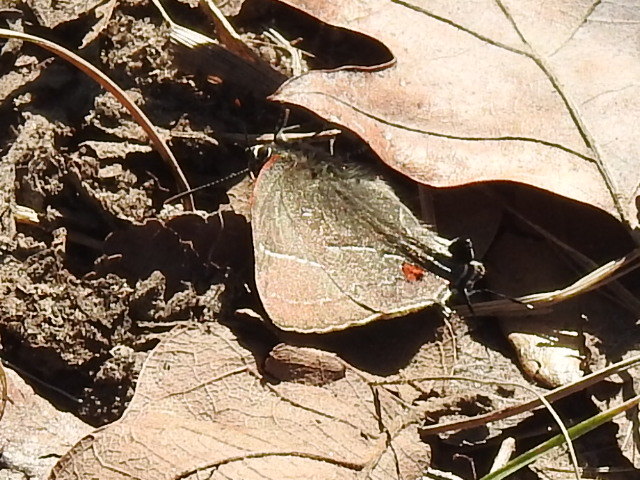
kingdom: Animalia
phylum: Arthropoda
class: Insecta
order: Lepidoptera
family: Lycaenidae
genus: Parrhasius
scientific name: Parrhasius m-album
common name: White m hairstreak
